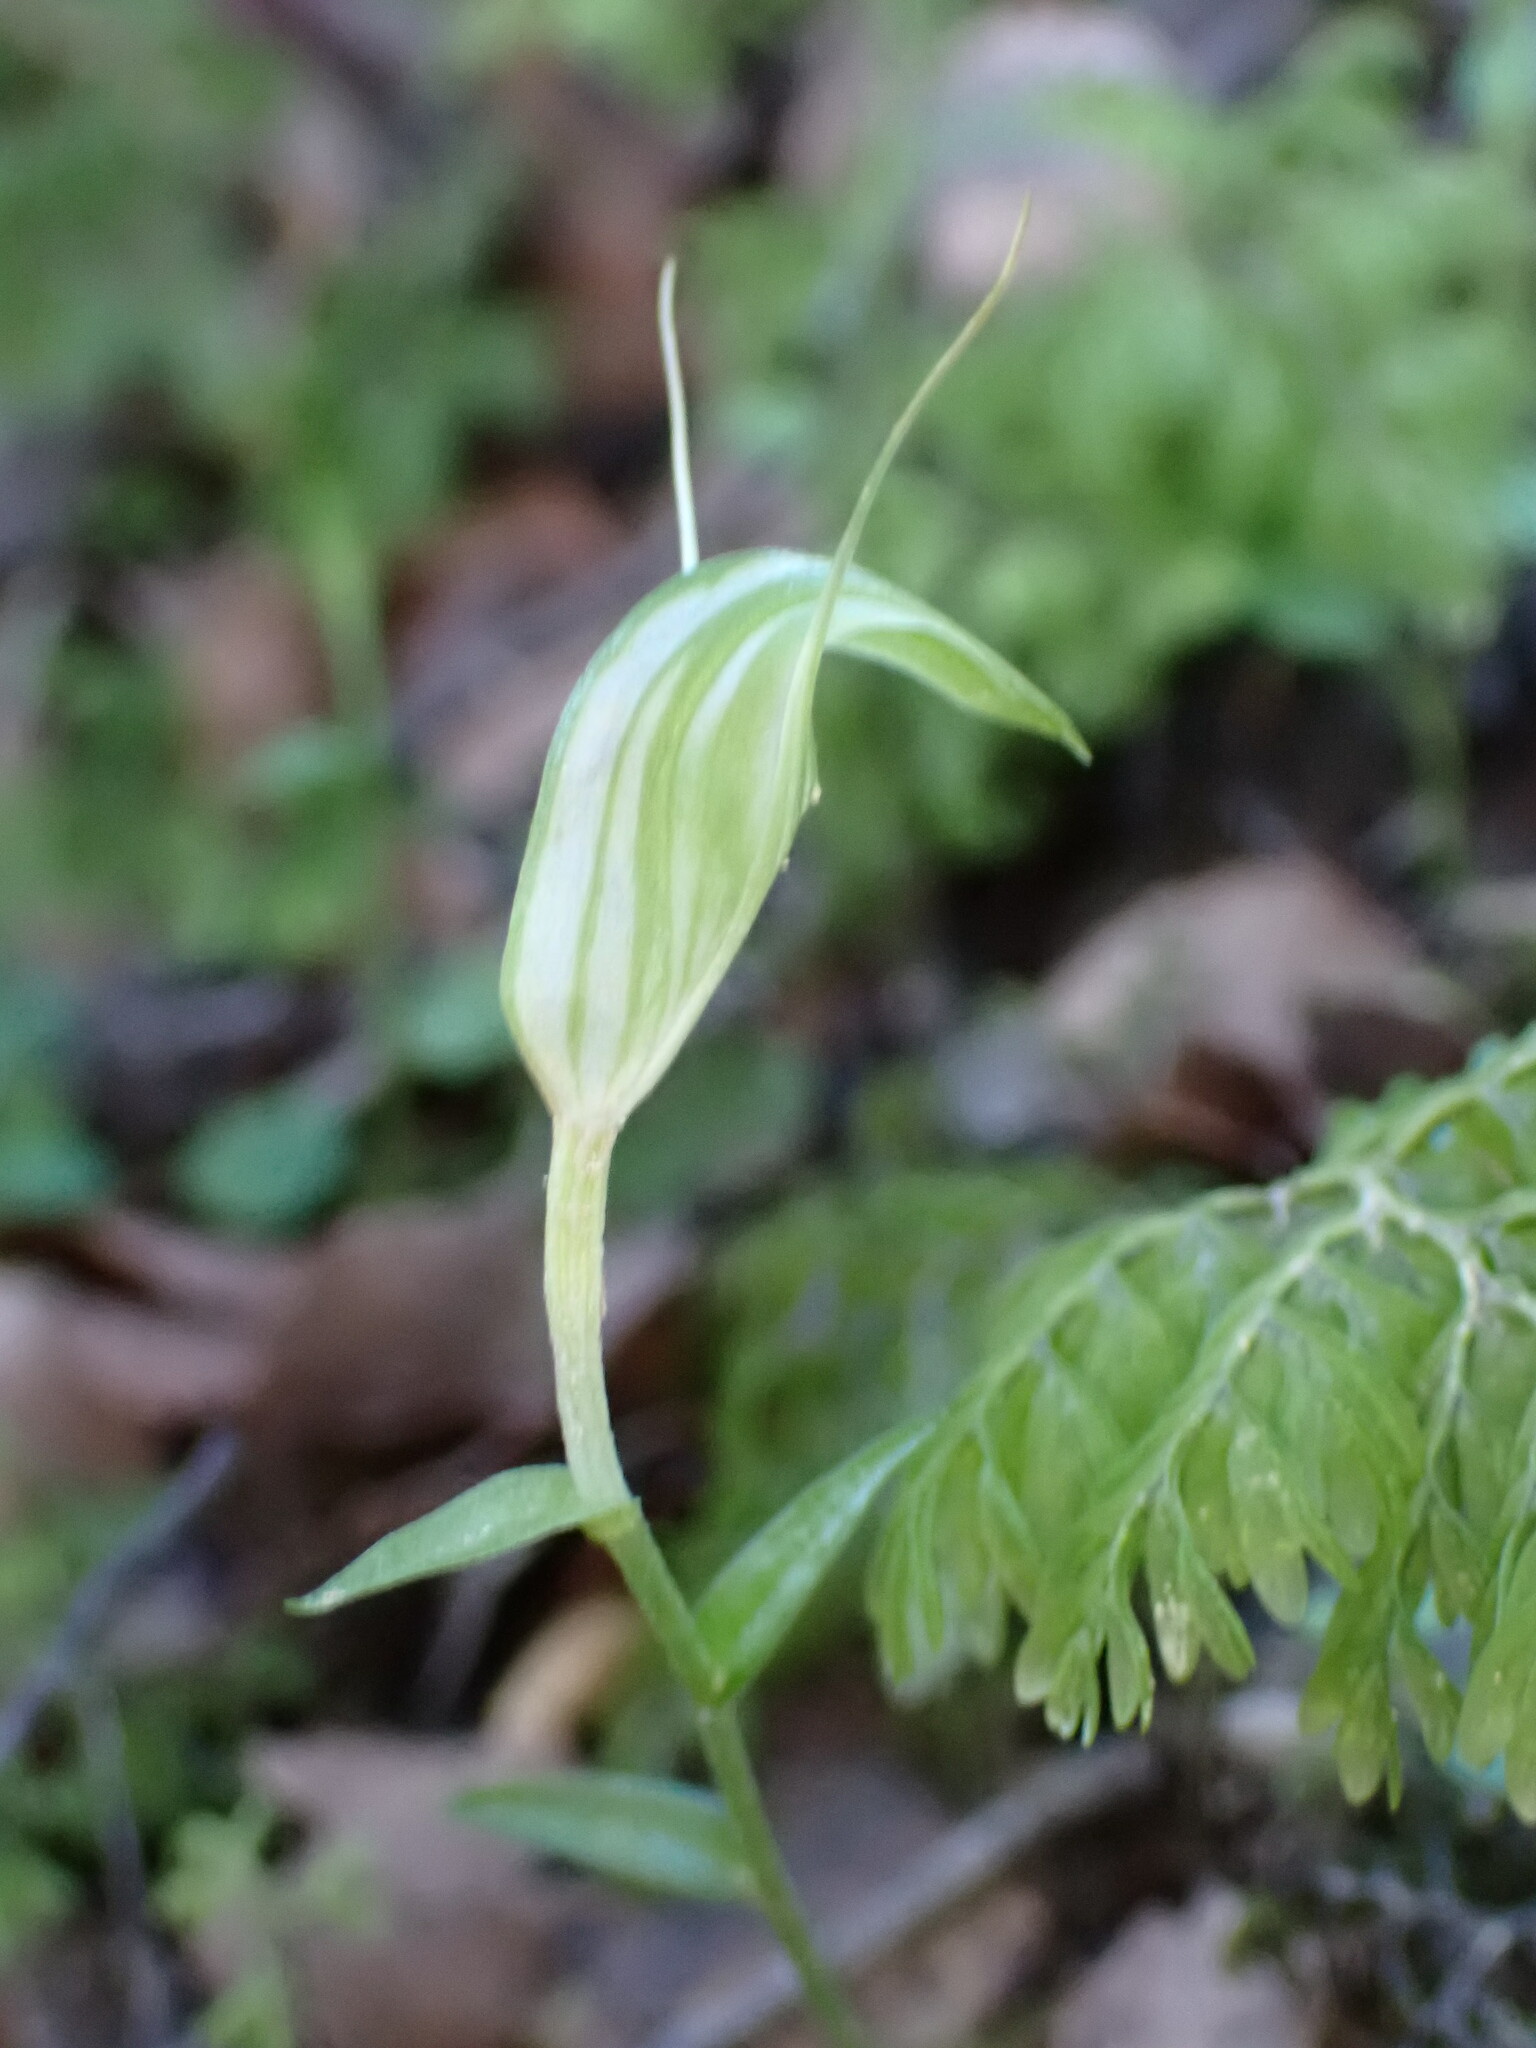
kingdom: Plantae
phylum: Tracheophyta
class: Liliopsida
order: Asparagales
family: Orchidaceae
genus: Pterostylis
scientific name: Pterostylis alobula
